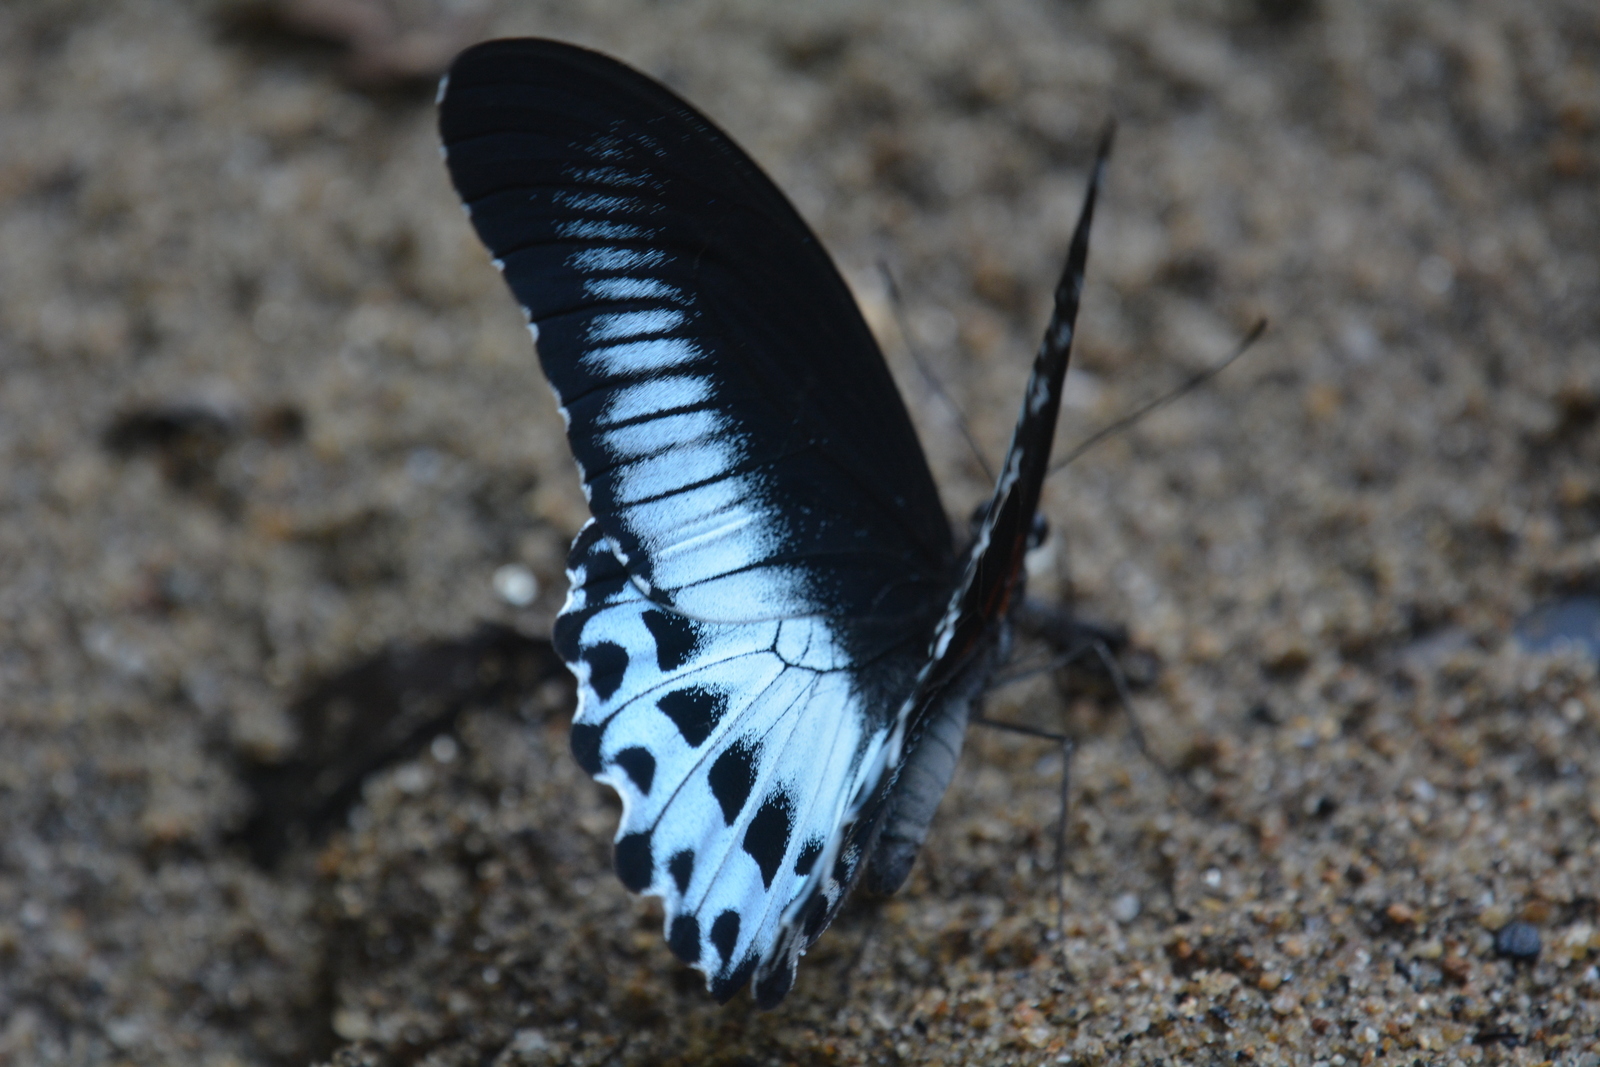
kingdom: Animalia
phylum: Arthropoda
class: Insecta
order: Lepidoptera
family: Papilionidae
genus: Papilio
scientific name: Papilio memnon
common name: Great mormon
